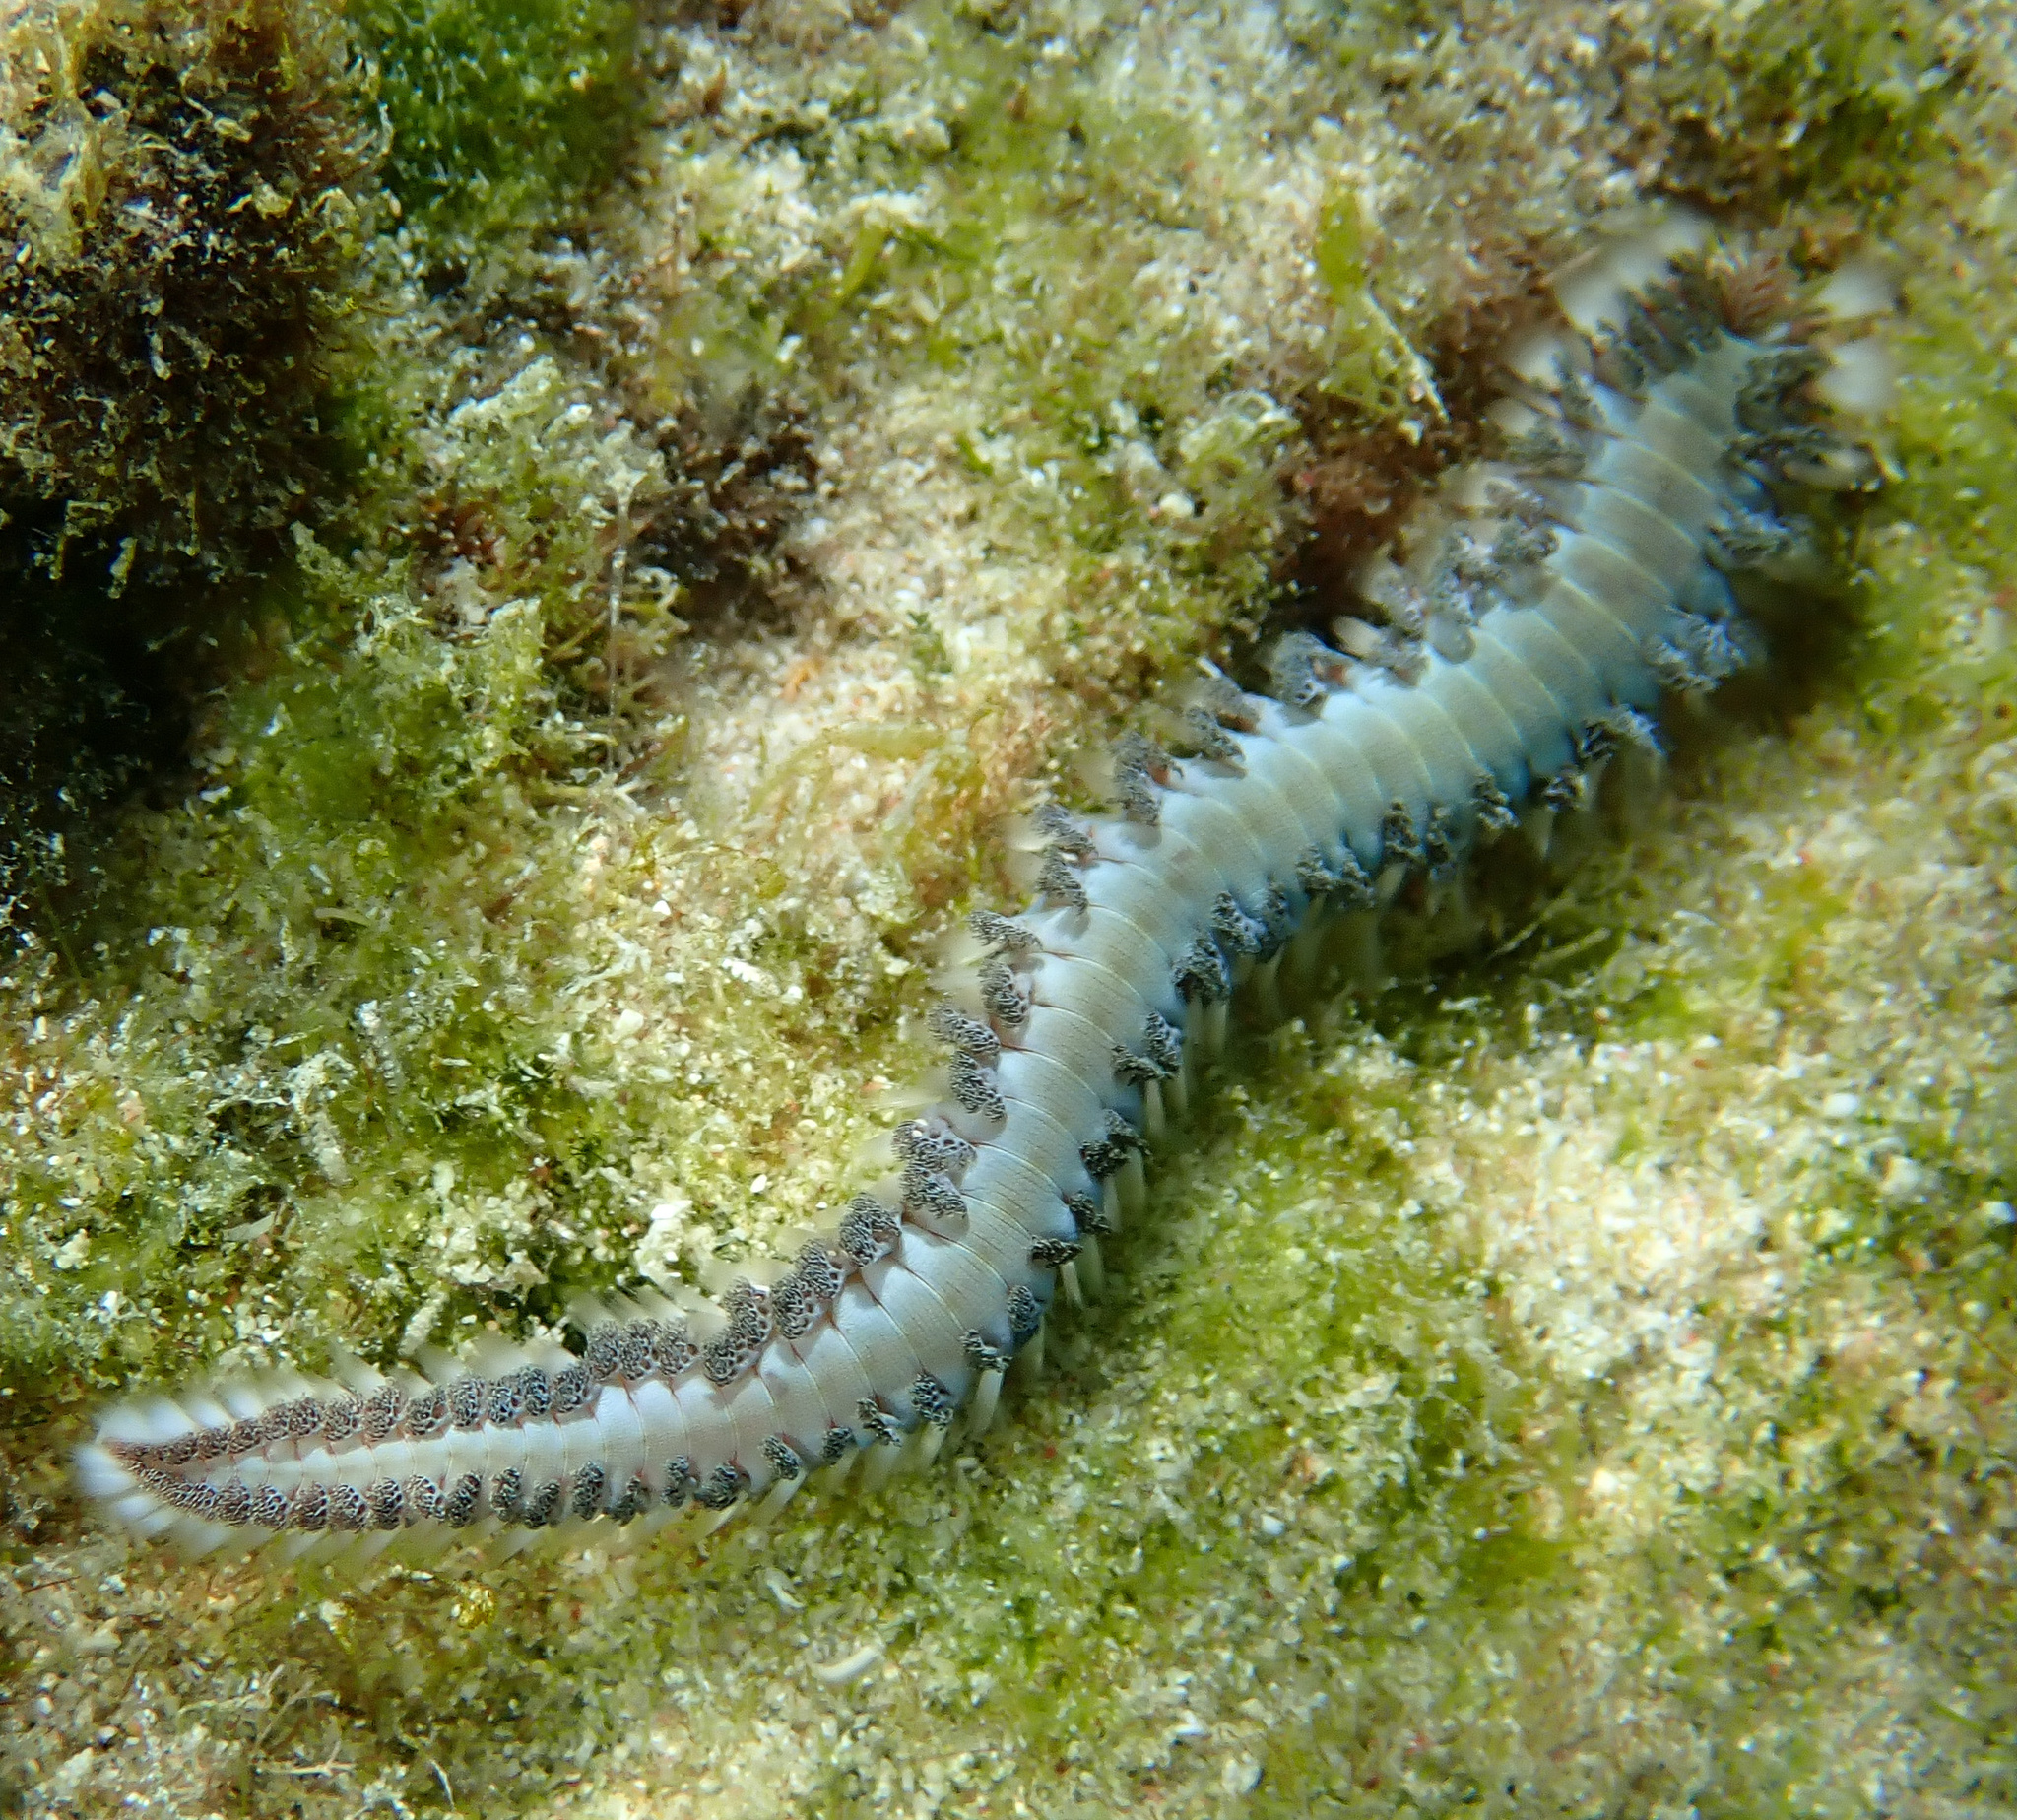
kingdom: Animalia
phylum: Annelida
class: Polychaeta
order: Amphinomida
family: Amphinomidae
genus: Hermodice
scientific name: Hermodice carunculata
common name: Bearded fireworm
